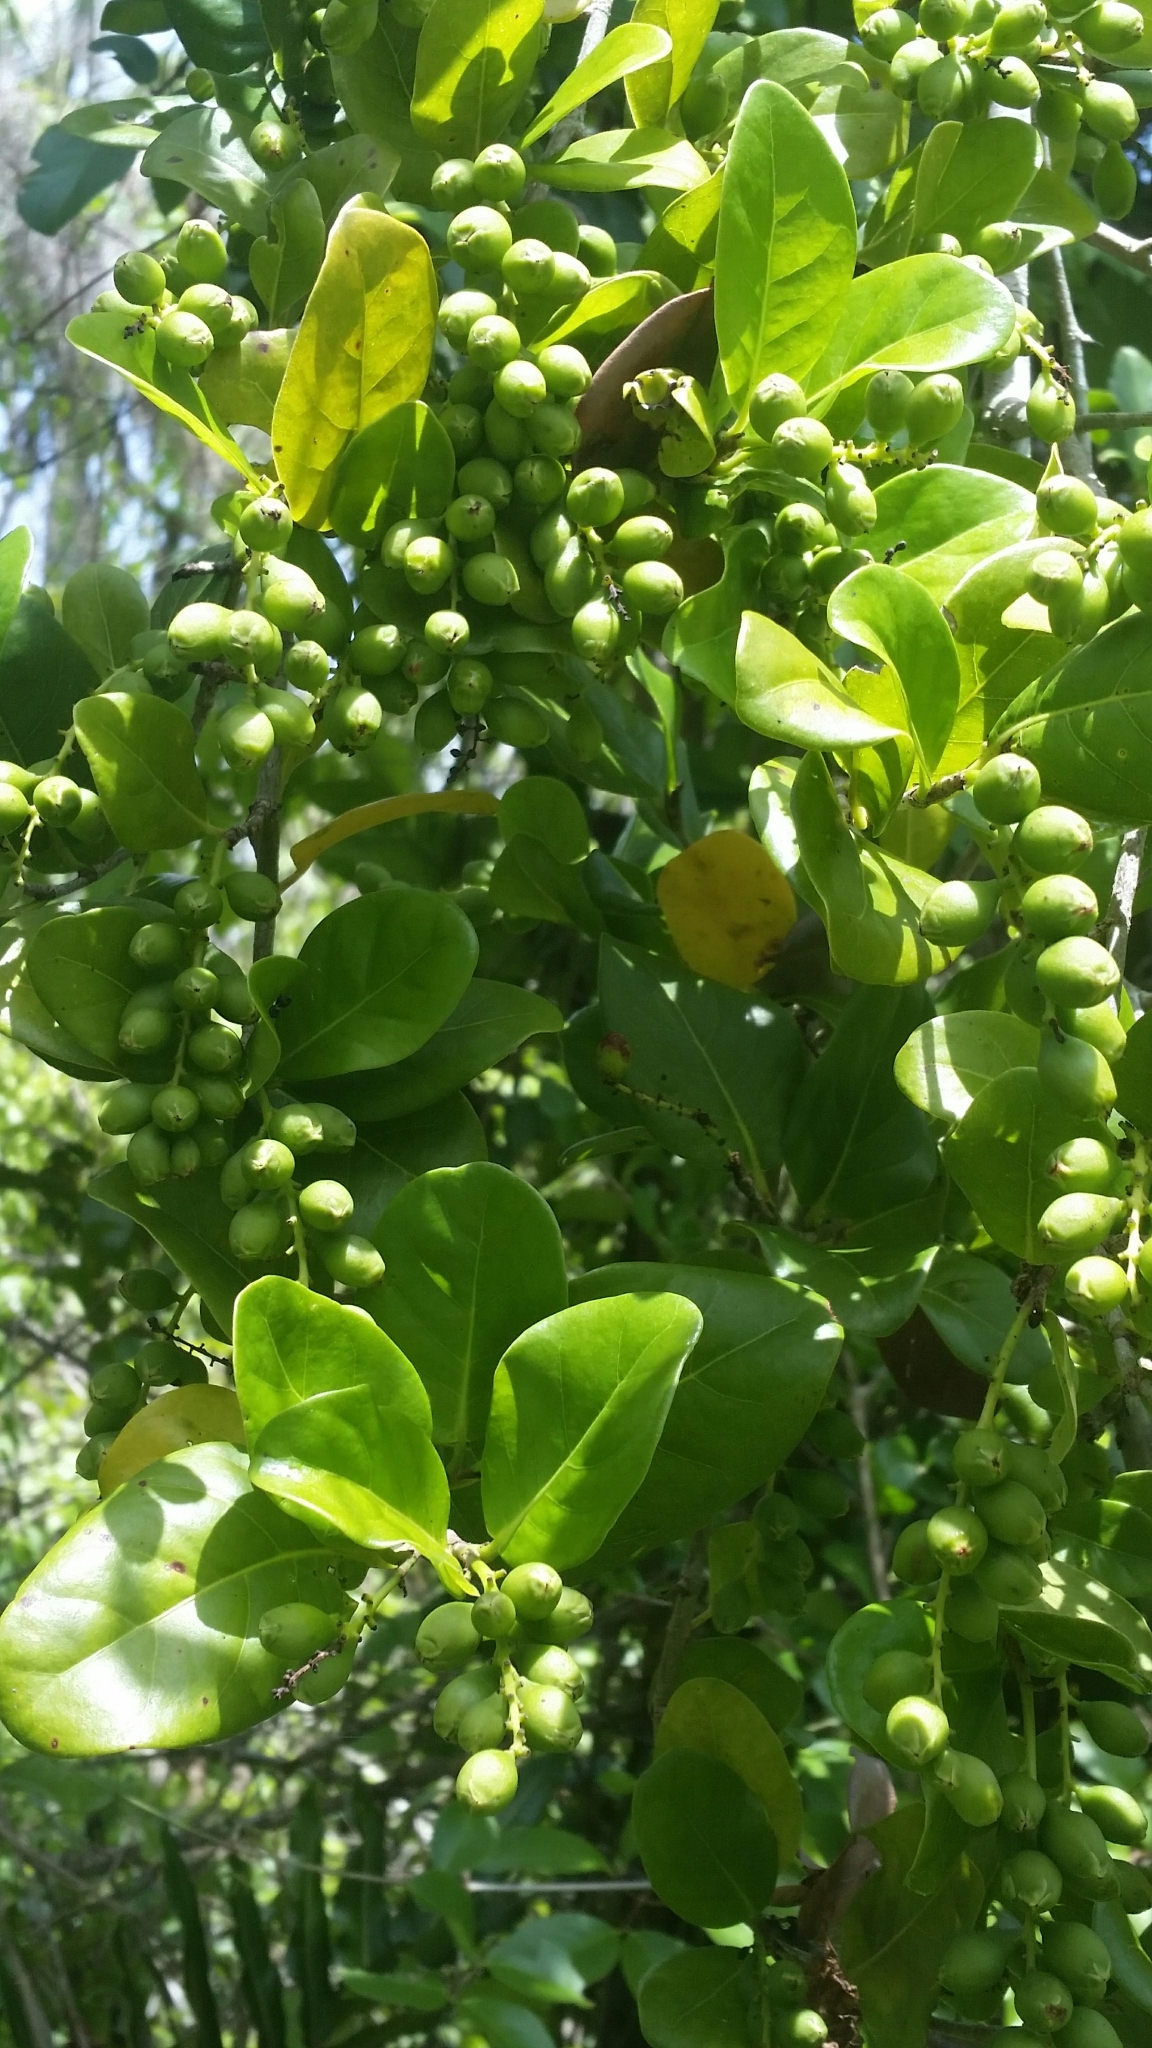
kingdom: Plantae
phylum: Tracheophyta
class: Magnoliopsida
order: Caryophyllales
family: Polygonaceae
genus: Coccoloba
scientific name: Coccoloba diversifolia
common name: Pigeon-plum
